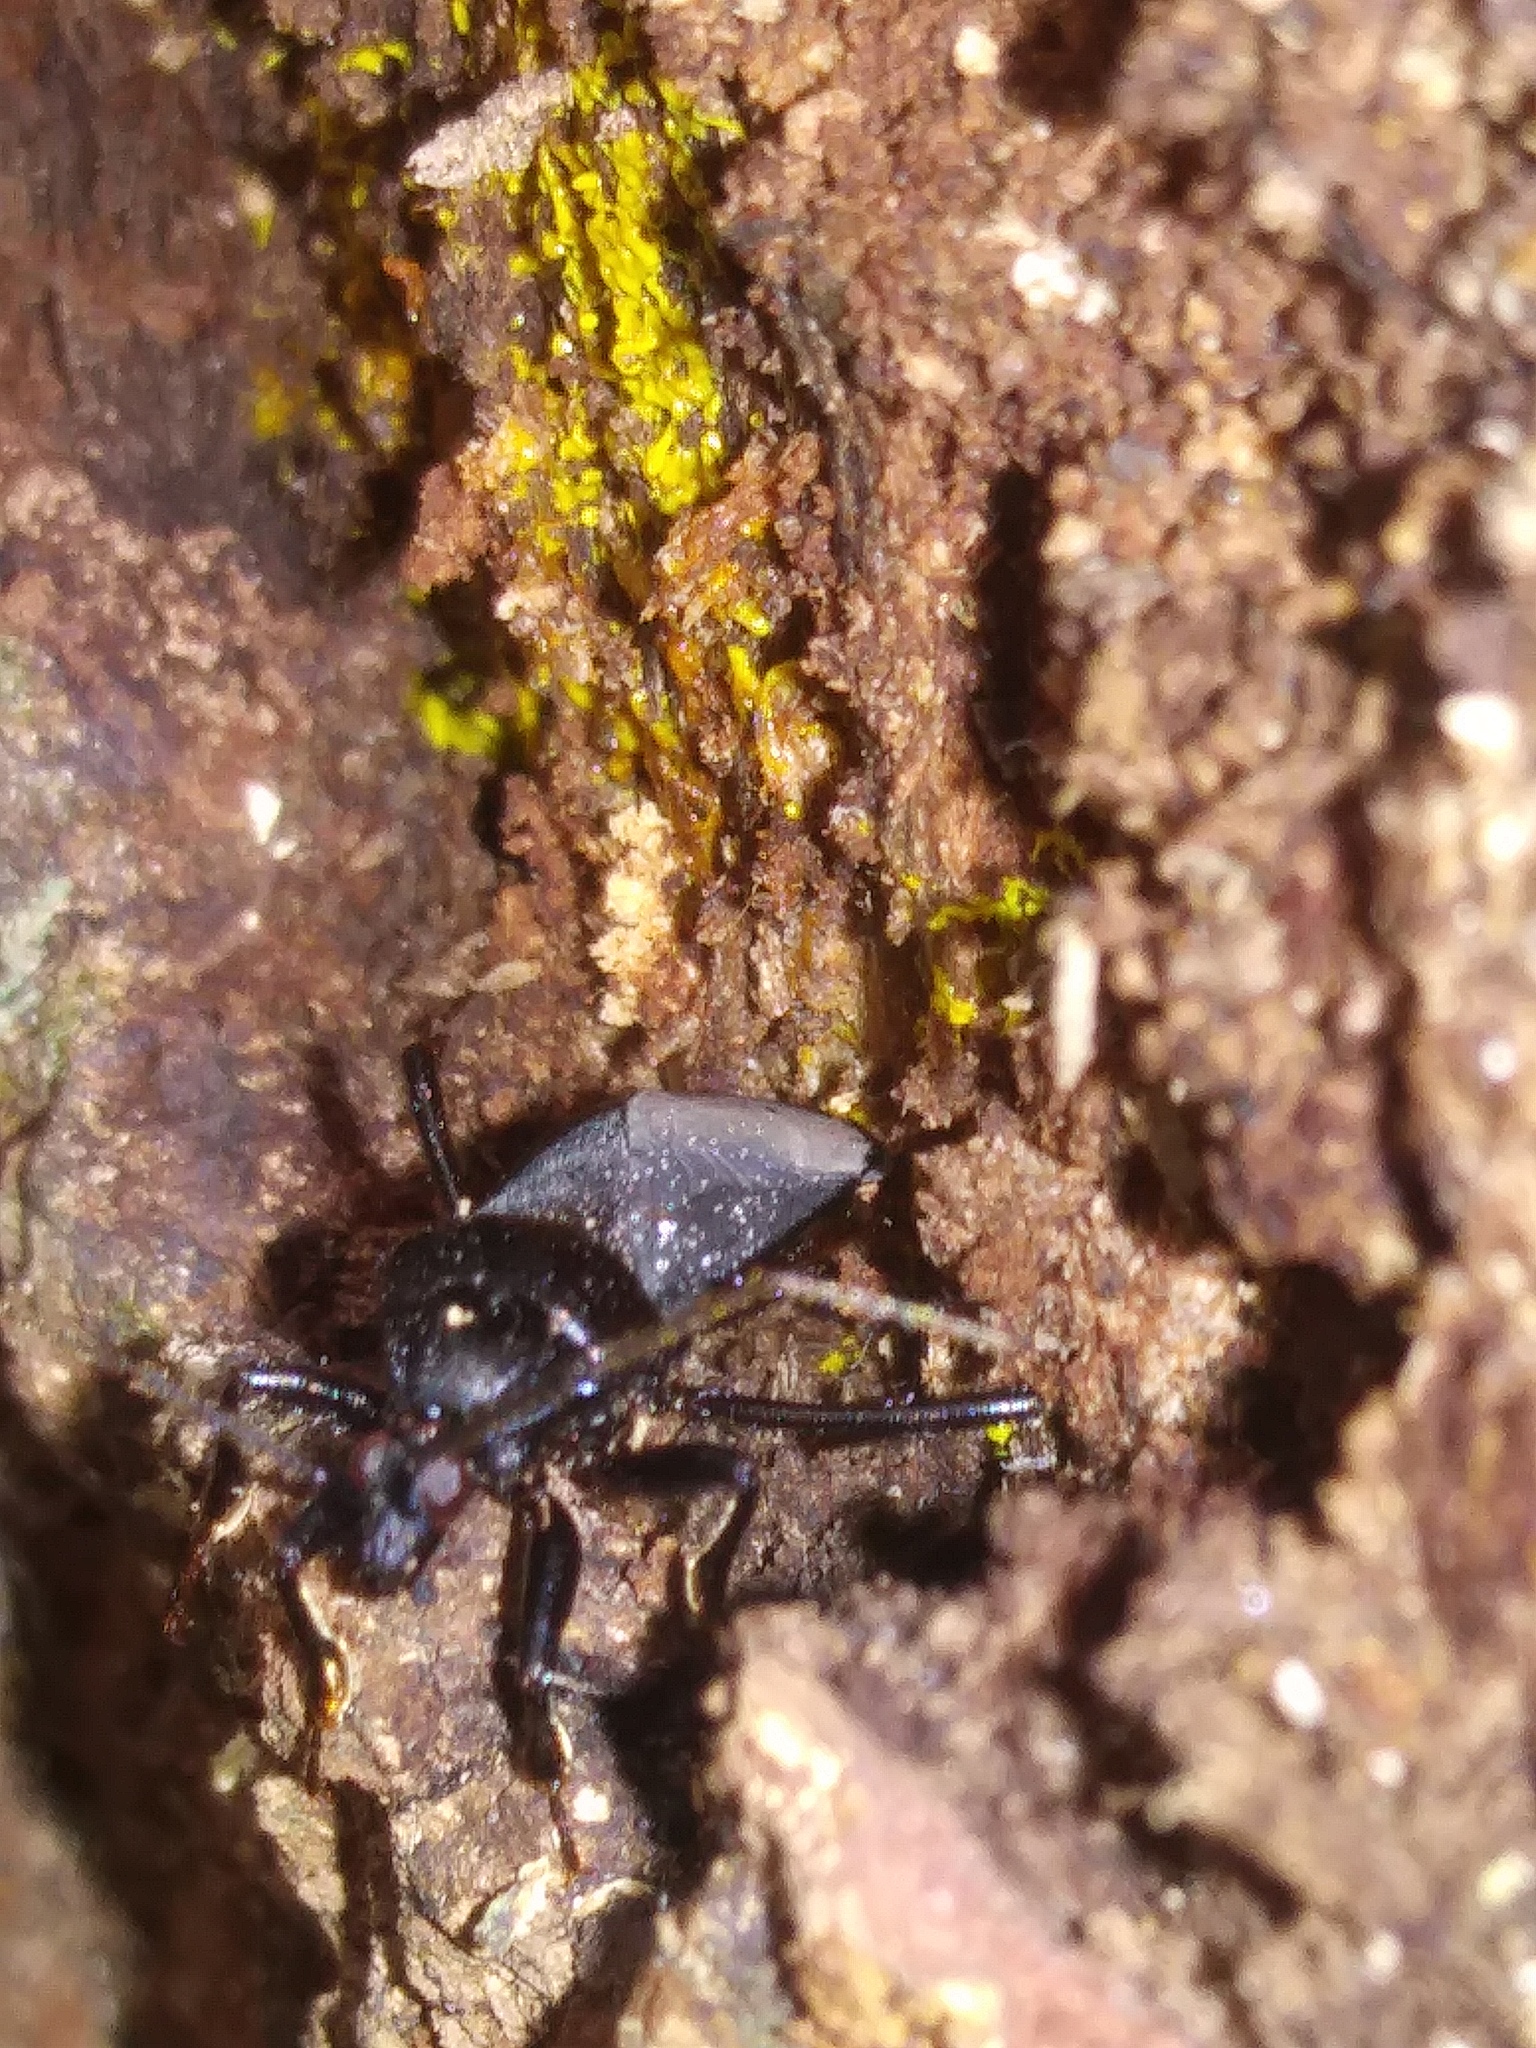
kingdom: Animalia
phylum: Arthropoda
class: Insecta
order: Hemiptera
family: Reduviidae
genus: Melanolestes
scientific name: Melanolestes picipes
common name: Assassin bug
